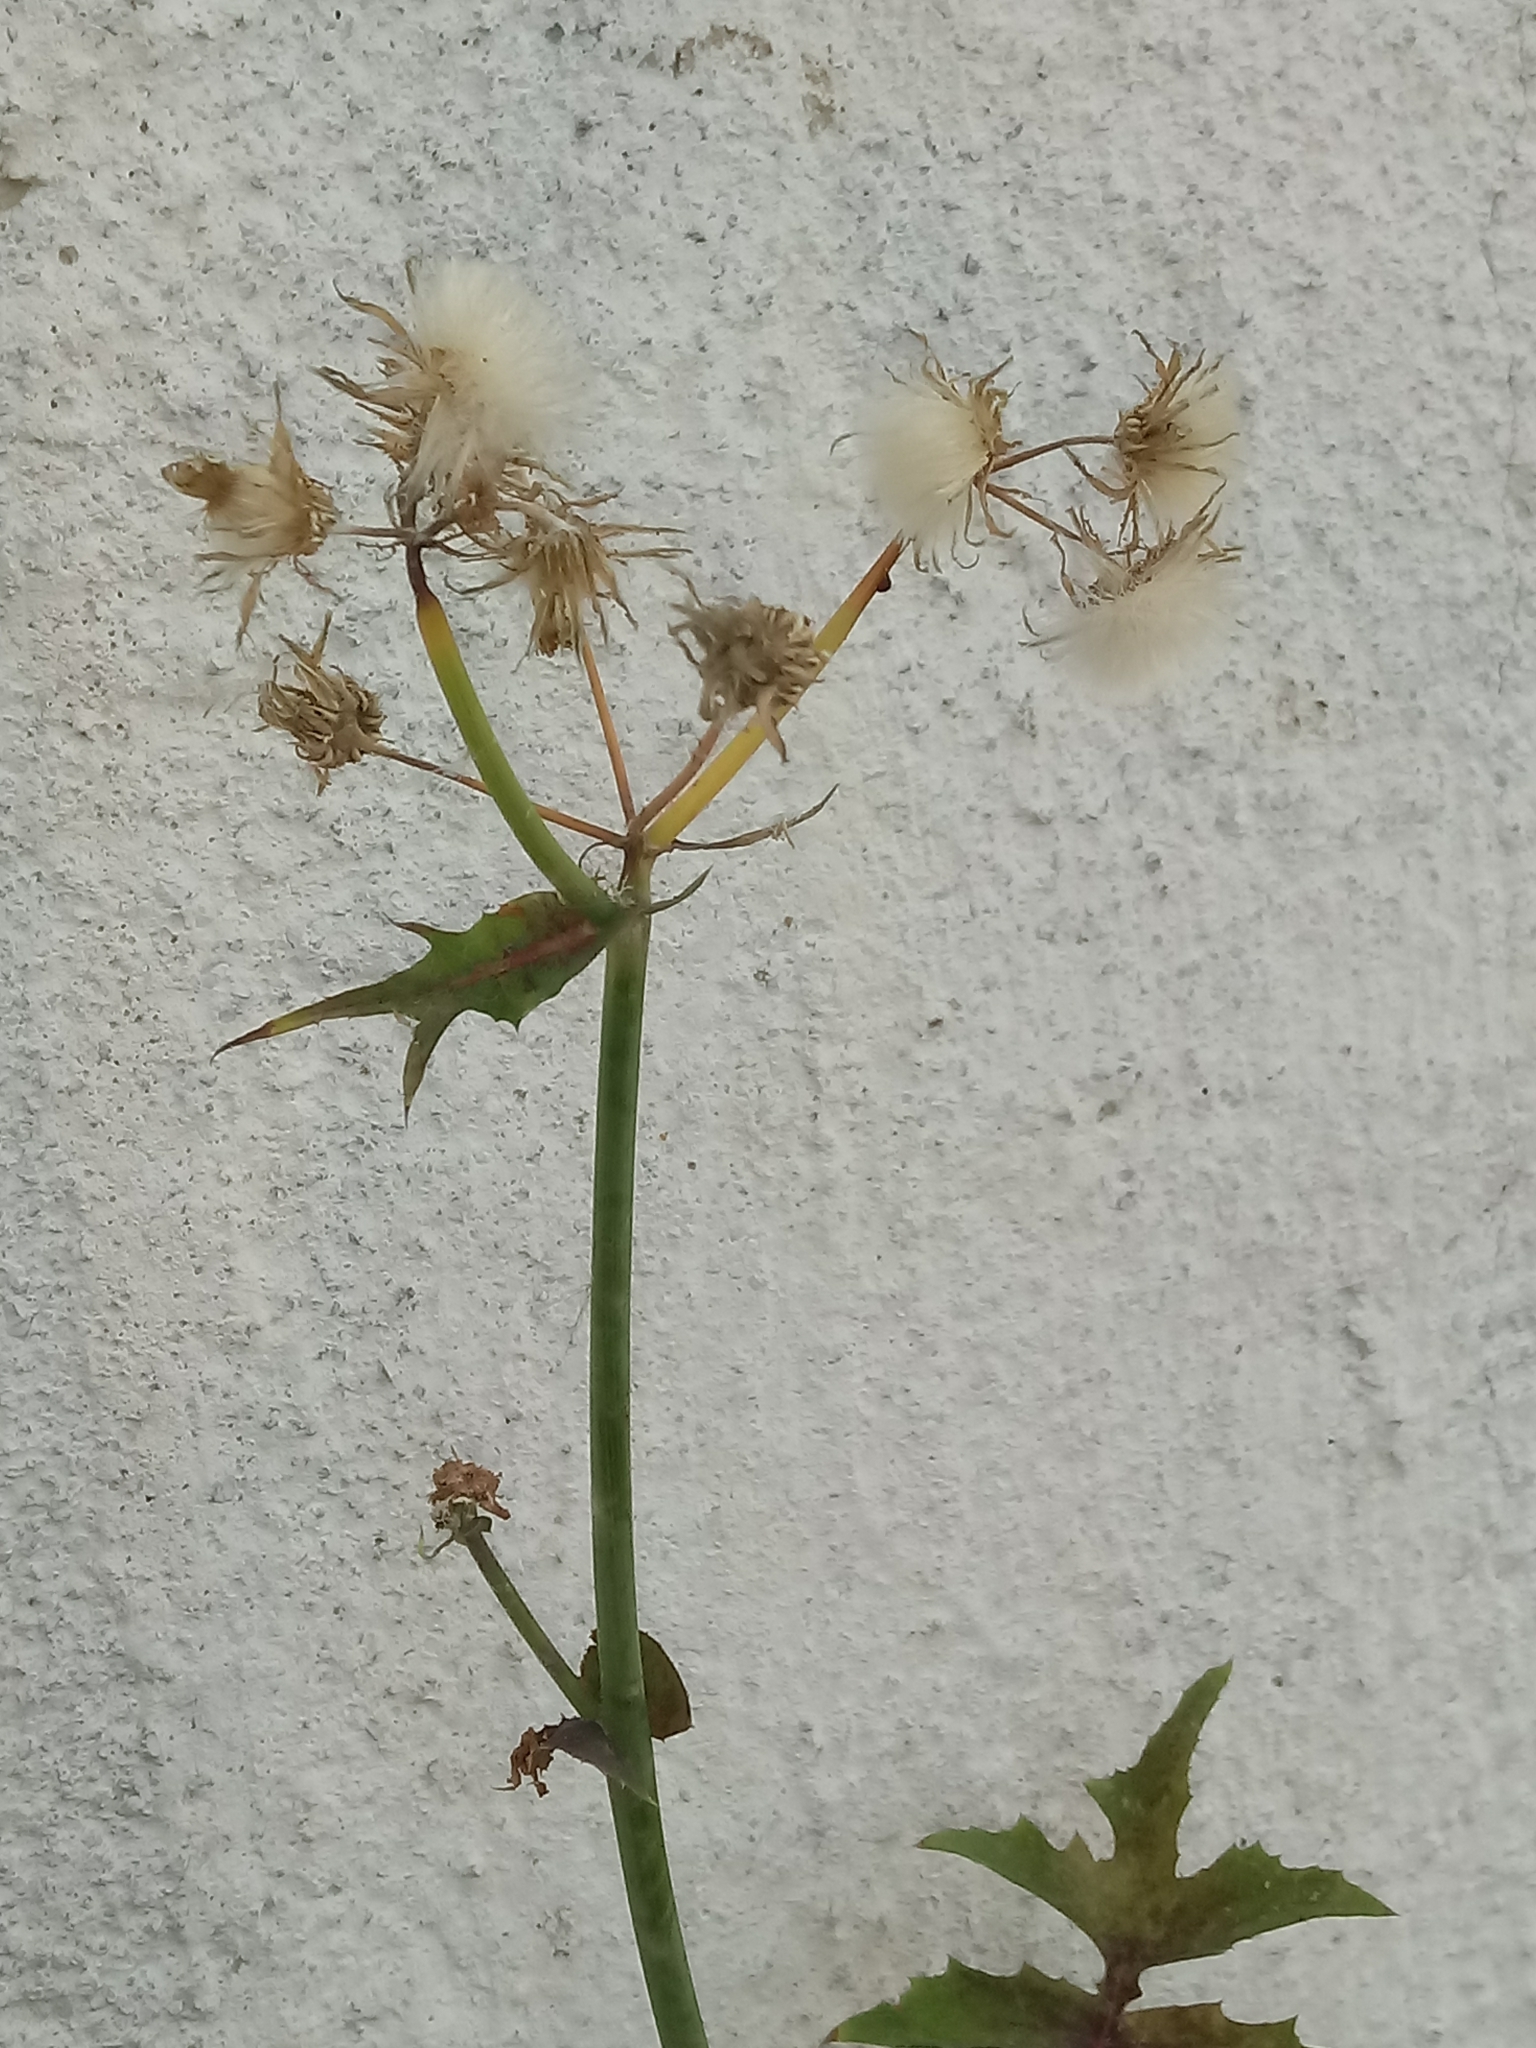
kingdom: Plantae
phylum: Tracheophyta
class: Magnoliopsida
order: Asterales
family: Asteraceae
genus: Sonchus
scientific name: Sonchus oleraceus
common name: Common sowthistle
